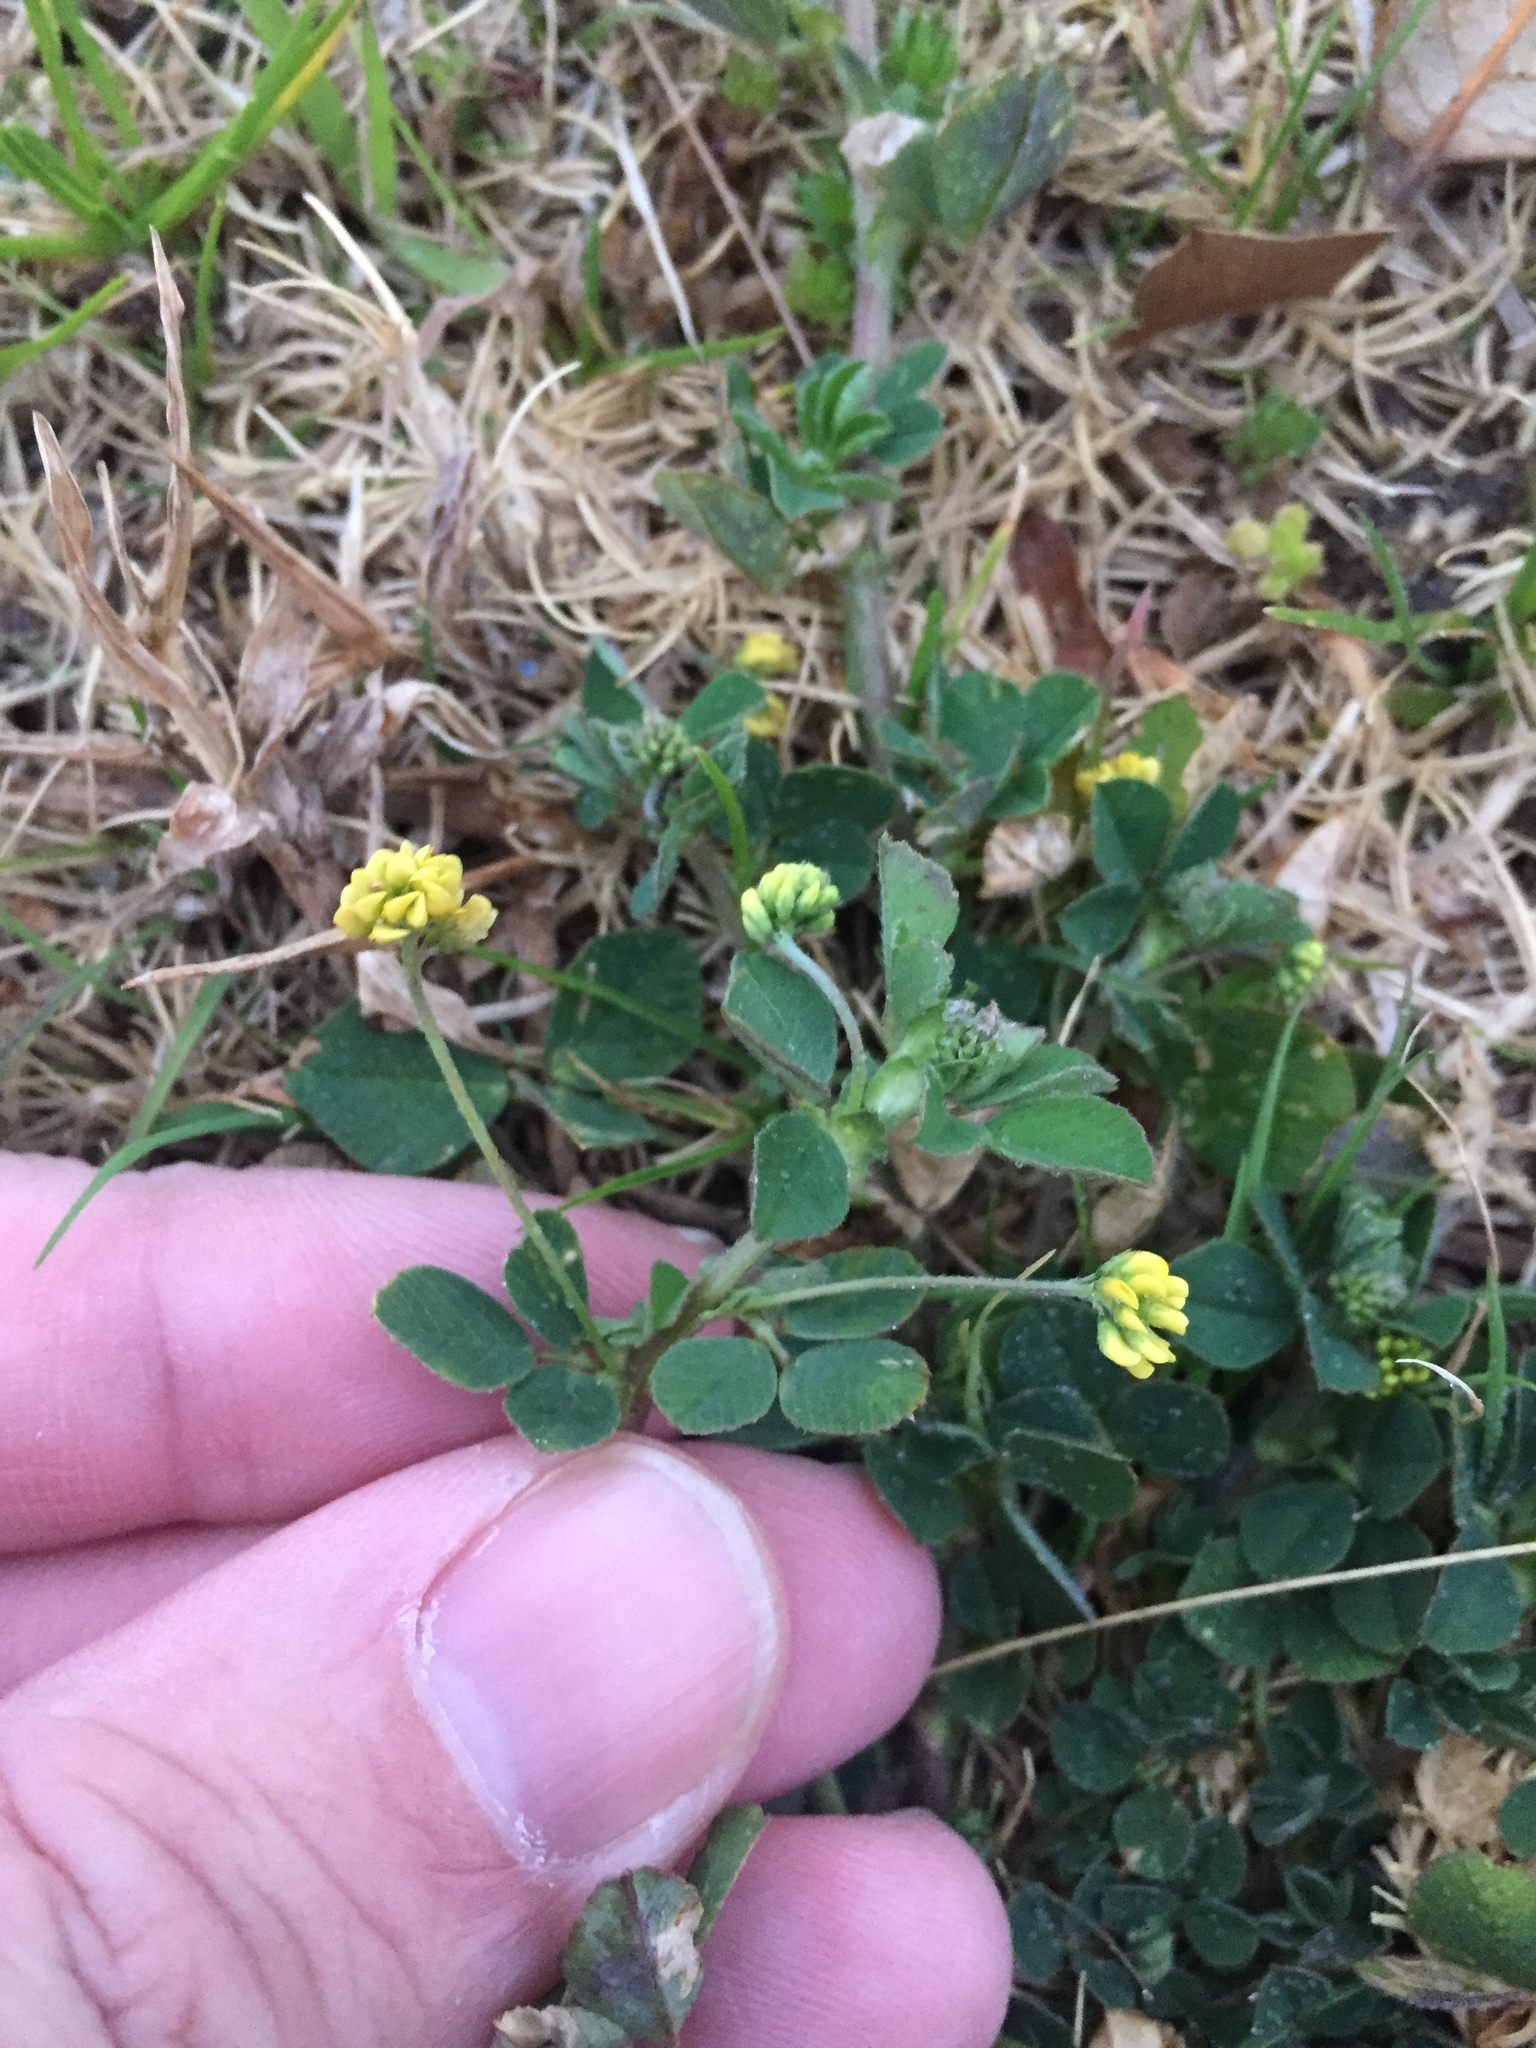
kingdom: Plantae
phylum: Tracheophyta
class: Magnoliopsida
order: Fabales
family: Fabaceae
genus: Medicago
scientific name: Medicago lupulina
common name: Black medick
